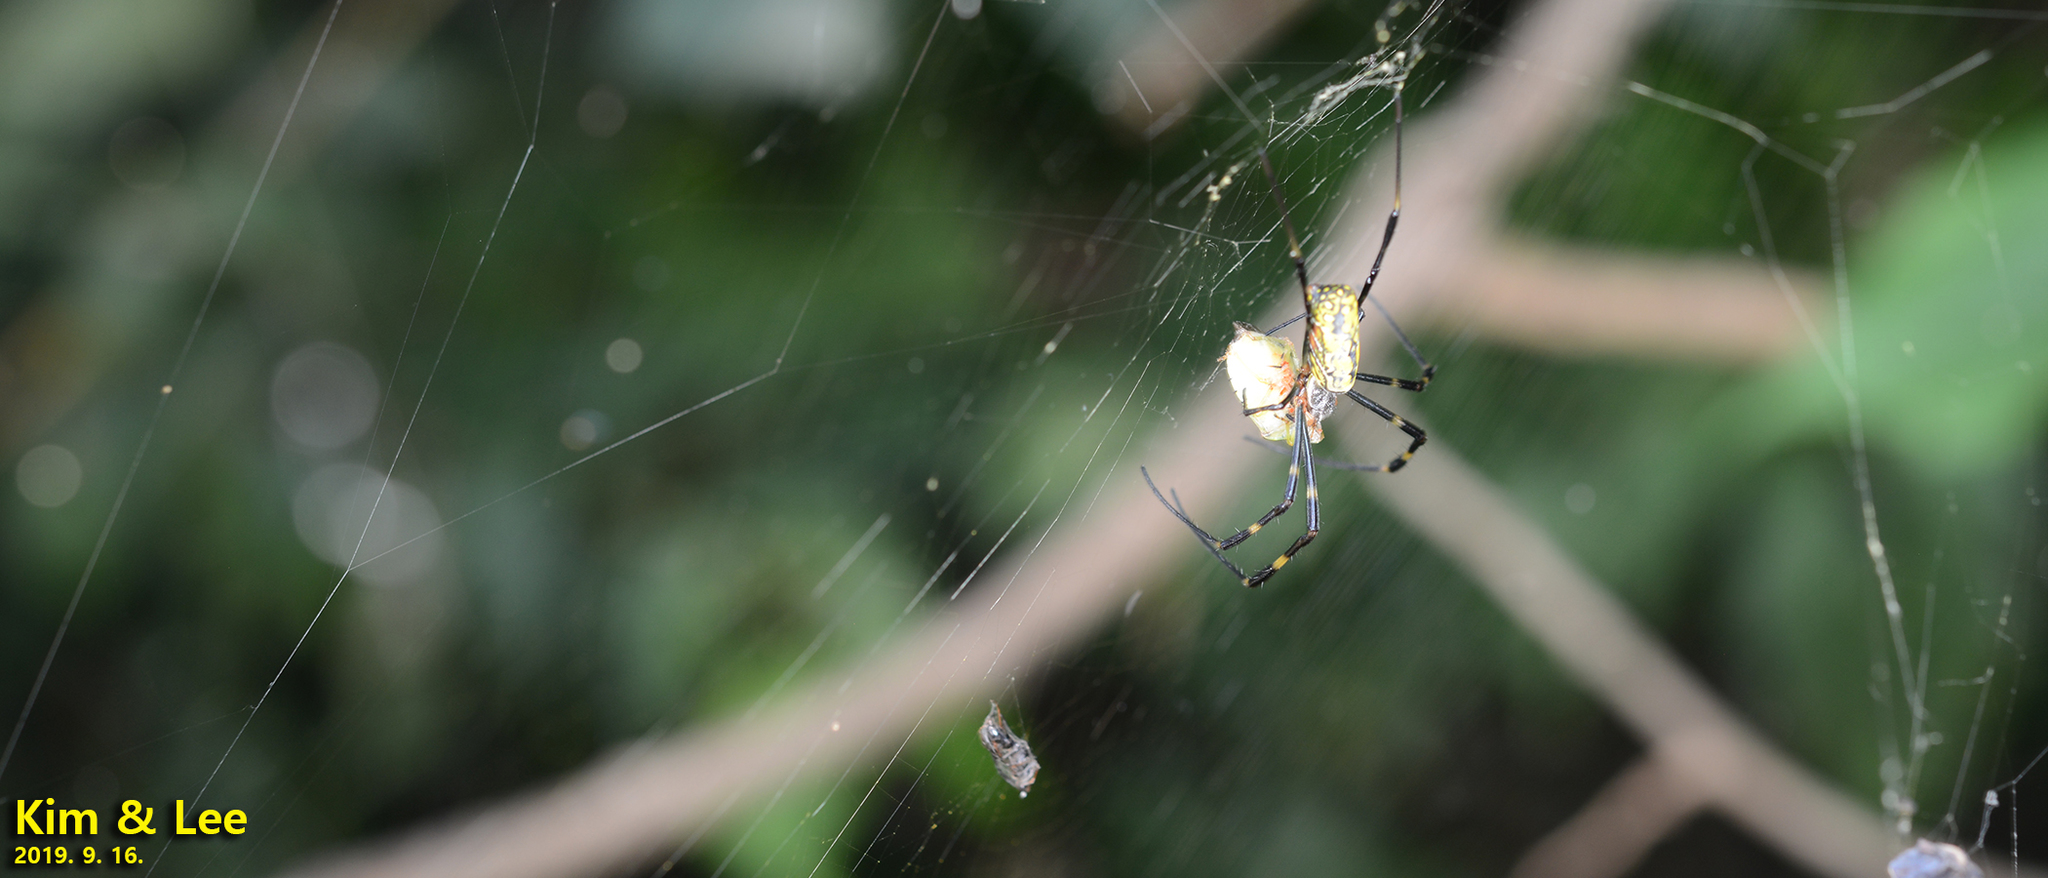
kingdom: Animalia
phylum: Arthropoda
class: Arachnida
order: Araneae
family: Araneidae
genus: Trichonephila
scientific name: Trichonephila clavata
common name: Jorō spider
